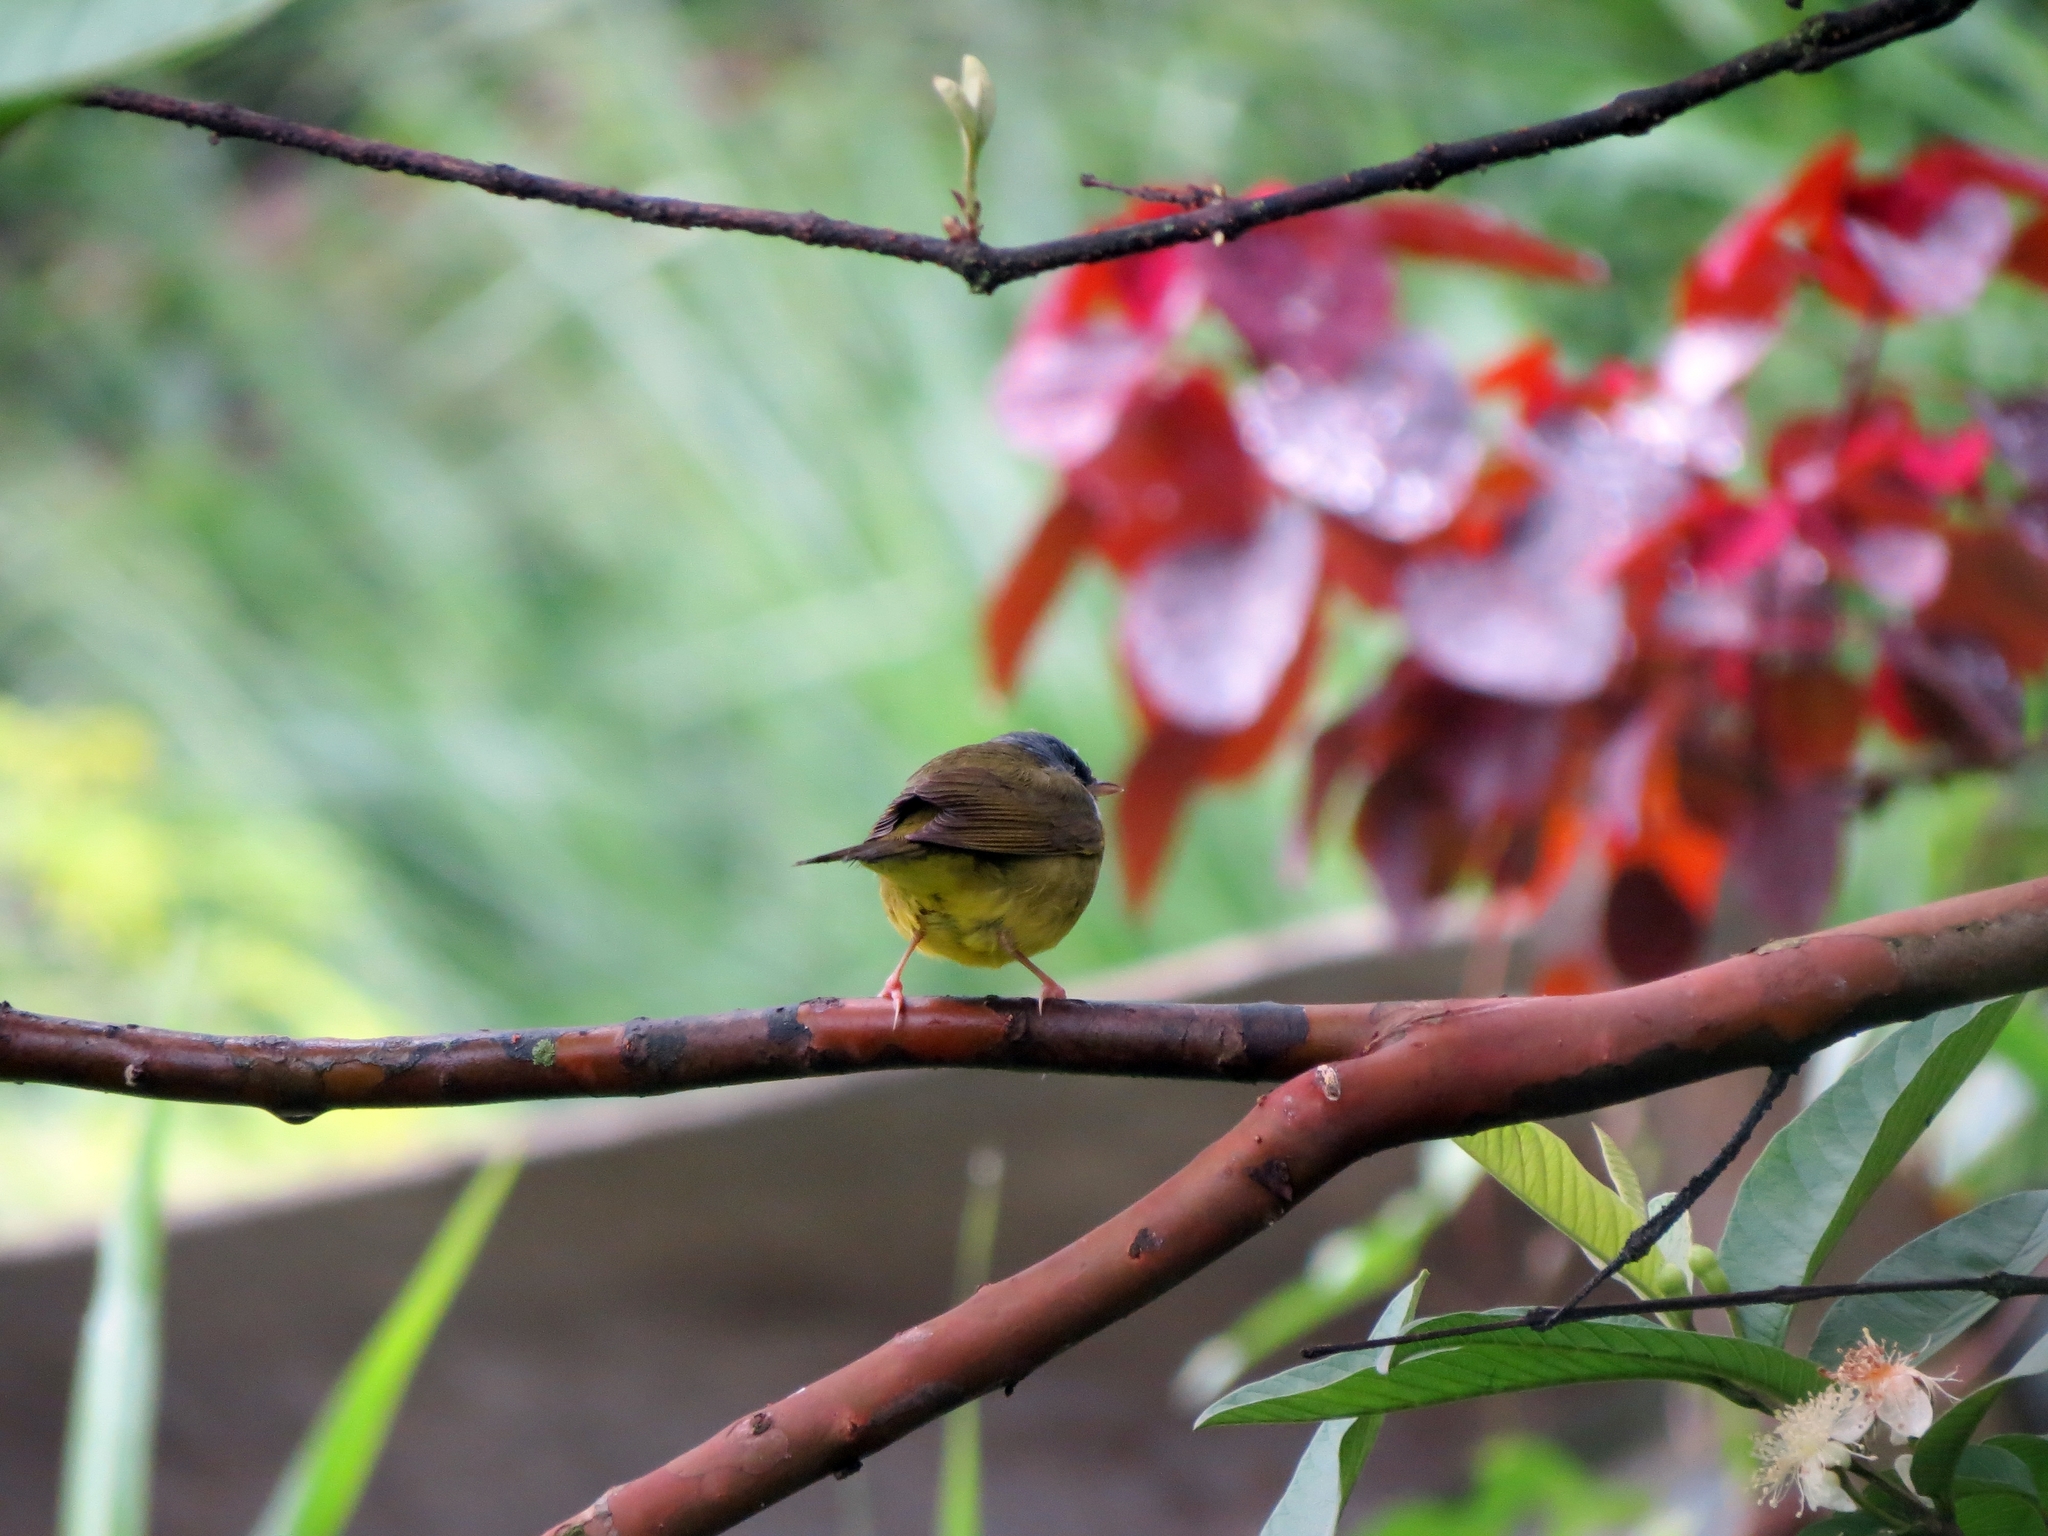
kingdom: Animalia
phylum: Chordata
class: Aves
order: Passeriformes
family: Parulidae
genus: Geothlypis
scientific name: Geothlypis philadelphia
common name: Mourning warbler
